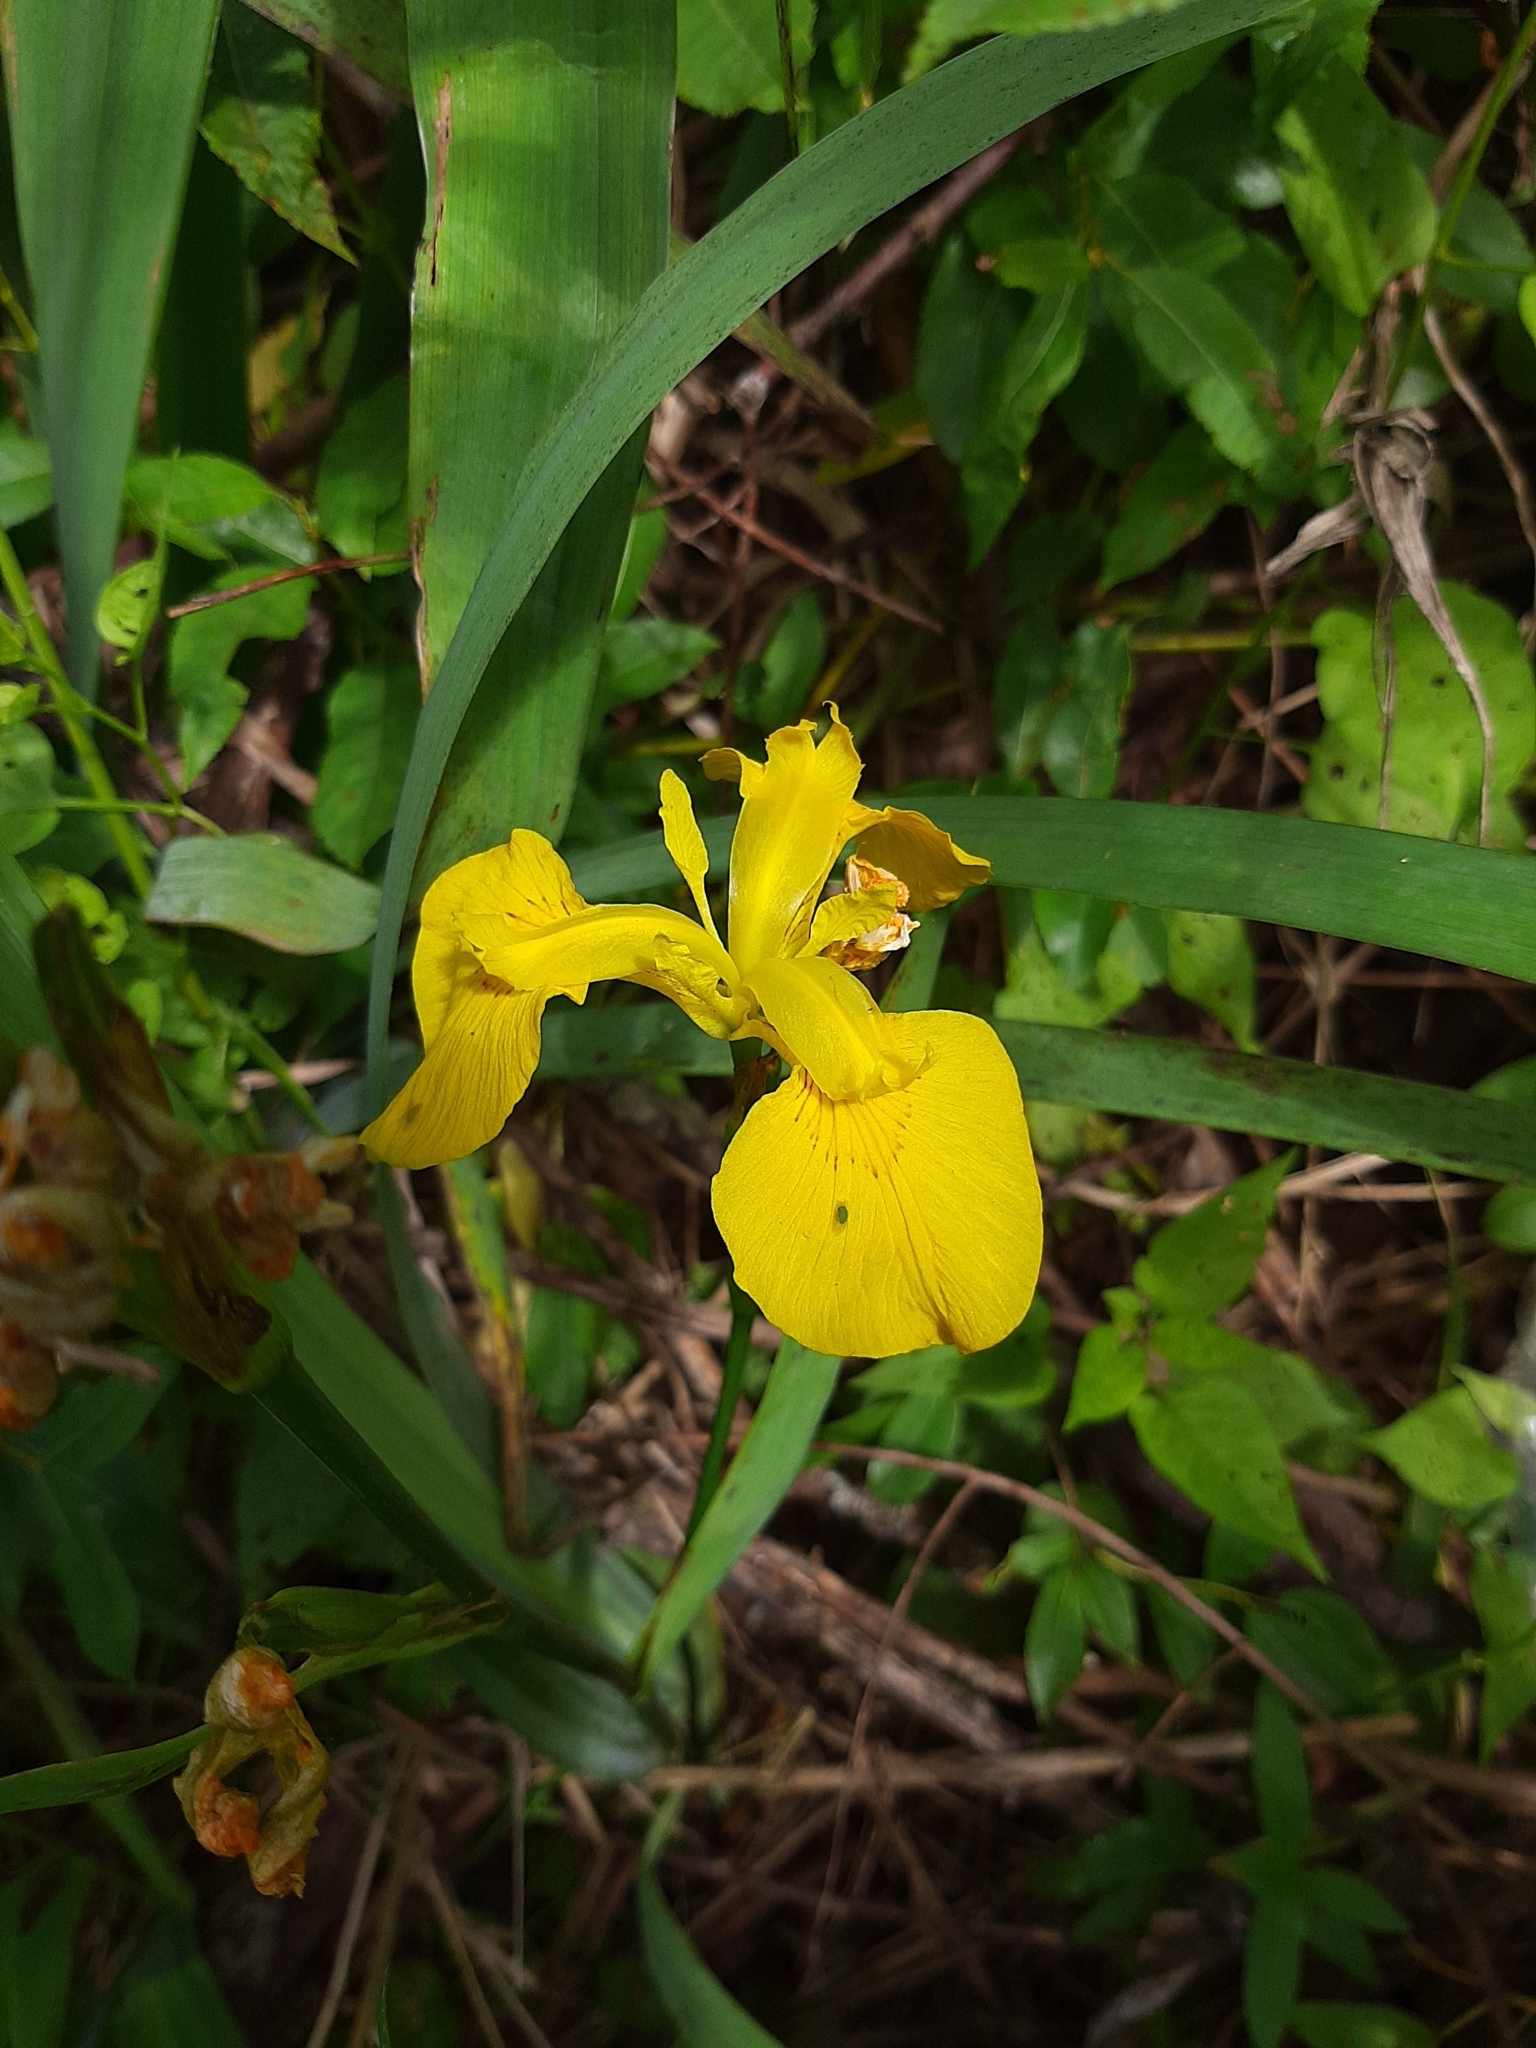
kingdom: Plantae
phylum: Tracheophyta
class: Liliopsida
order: Asparagales
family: Iridaceae
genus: Iris
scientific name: Iris pseudacorus
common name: Yellow flag
